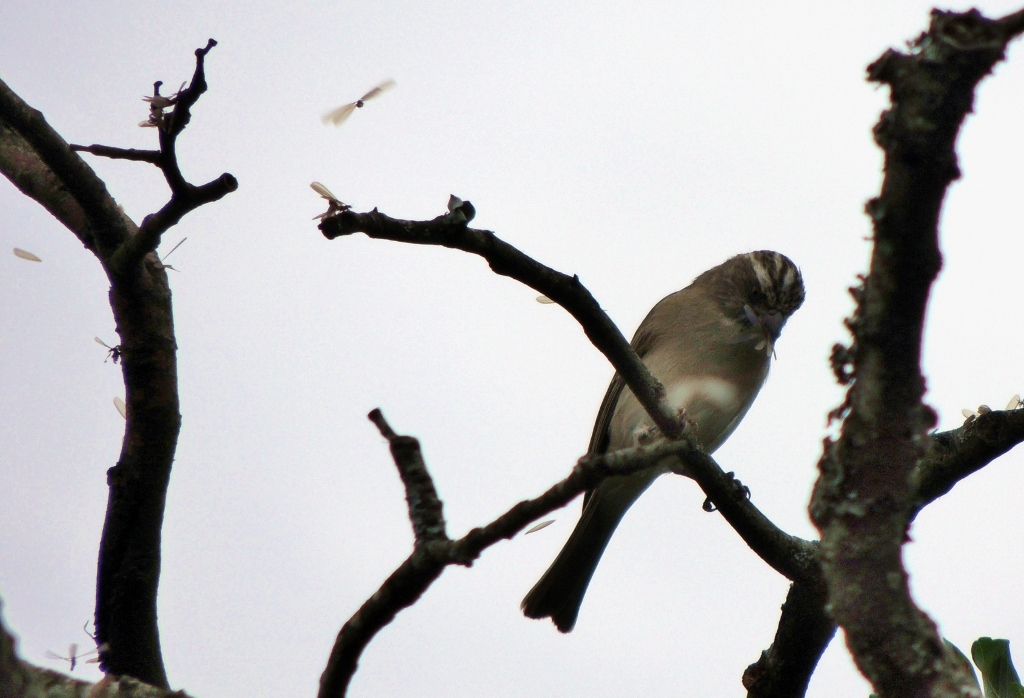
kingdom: Animalia
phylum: Chordata
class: Aves
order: Passeriformes
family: Fringillidae
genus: Crithagra
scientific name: Crithagra gularis
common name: Streaky-headed seedeater
